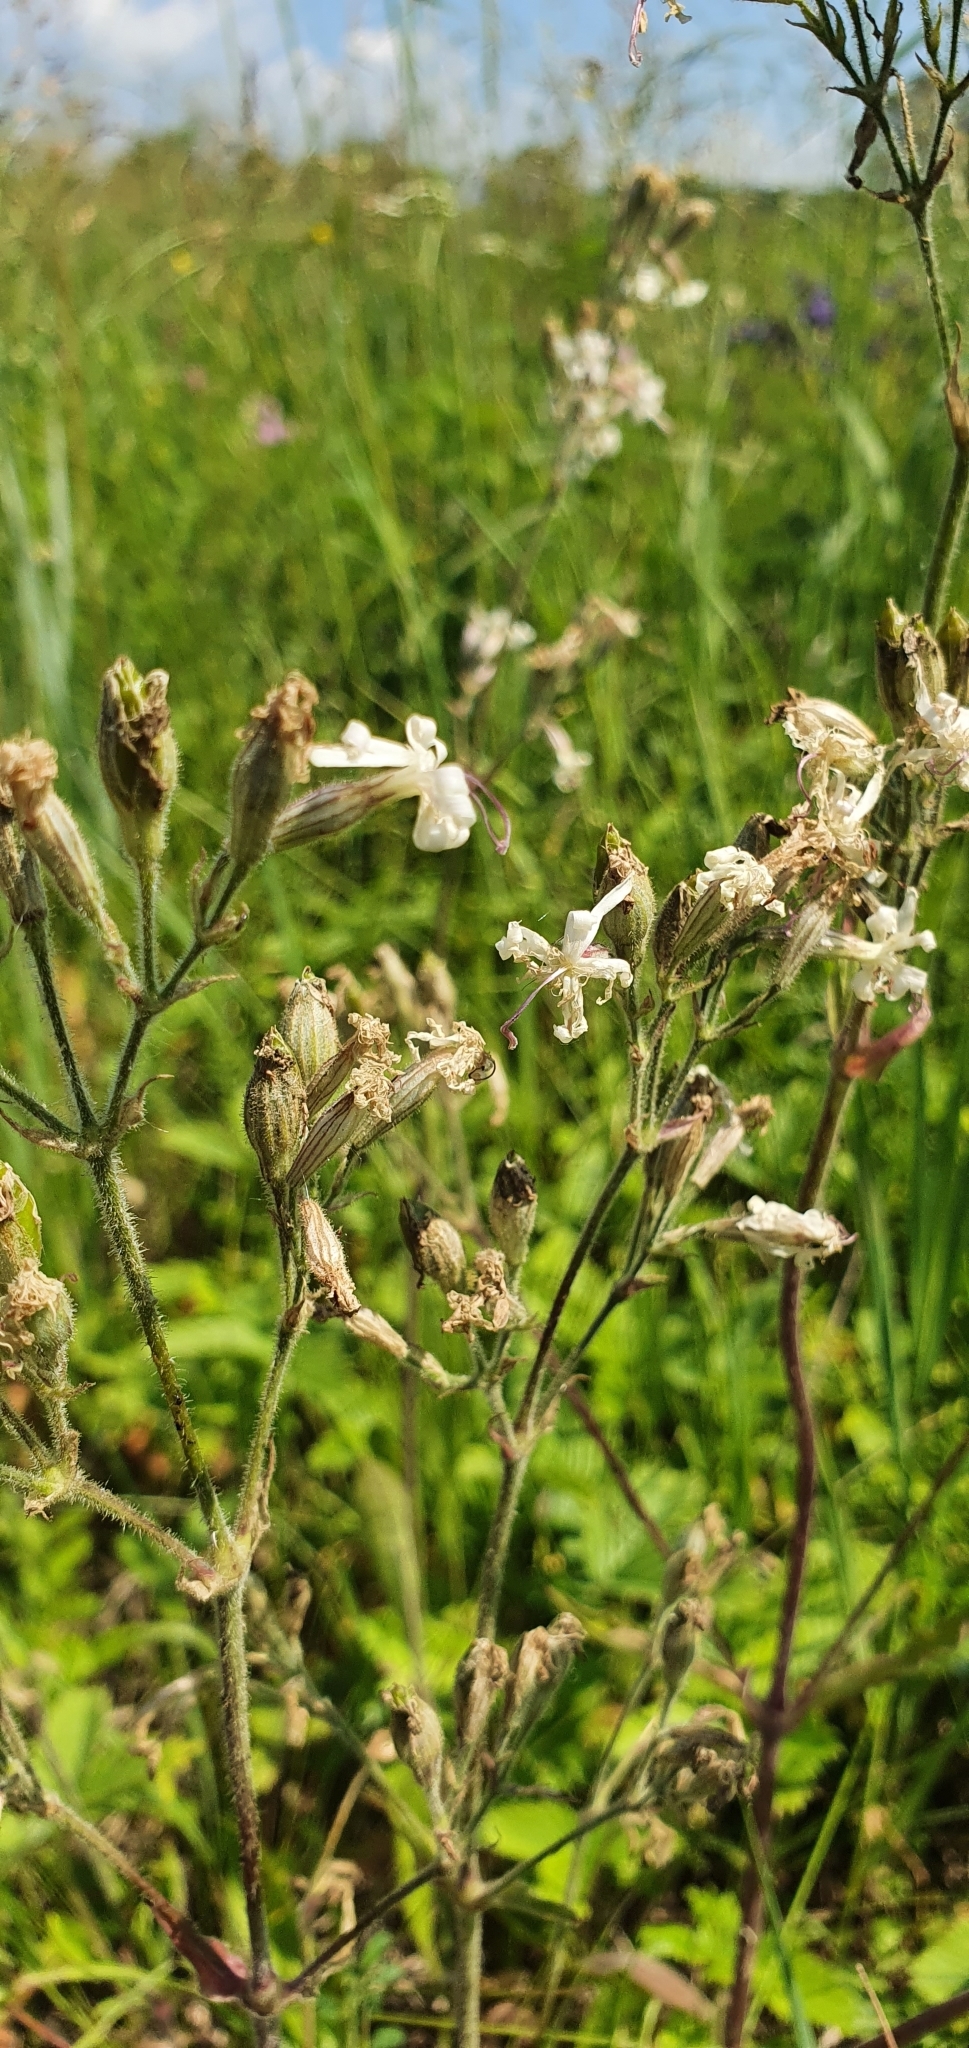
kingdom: Plantae
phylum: Tracheophyta
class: Magnoliopsida
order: Caryophyllales
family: Caryophyllaceae
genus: Silene
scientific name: Silene nutans
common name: Nottingham catchfly
